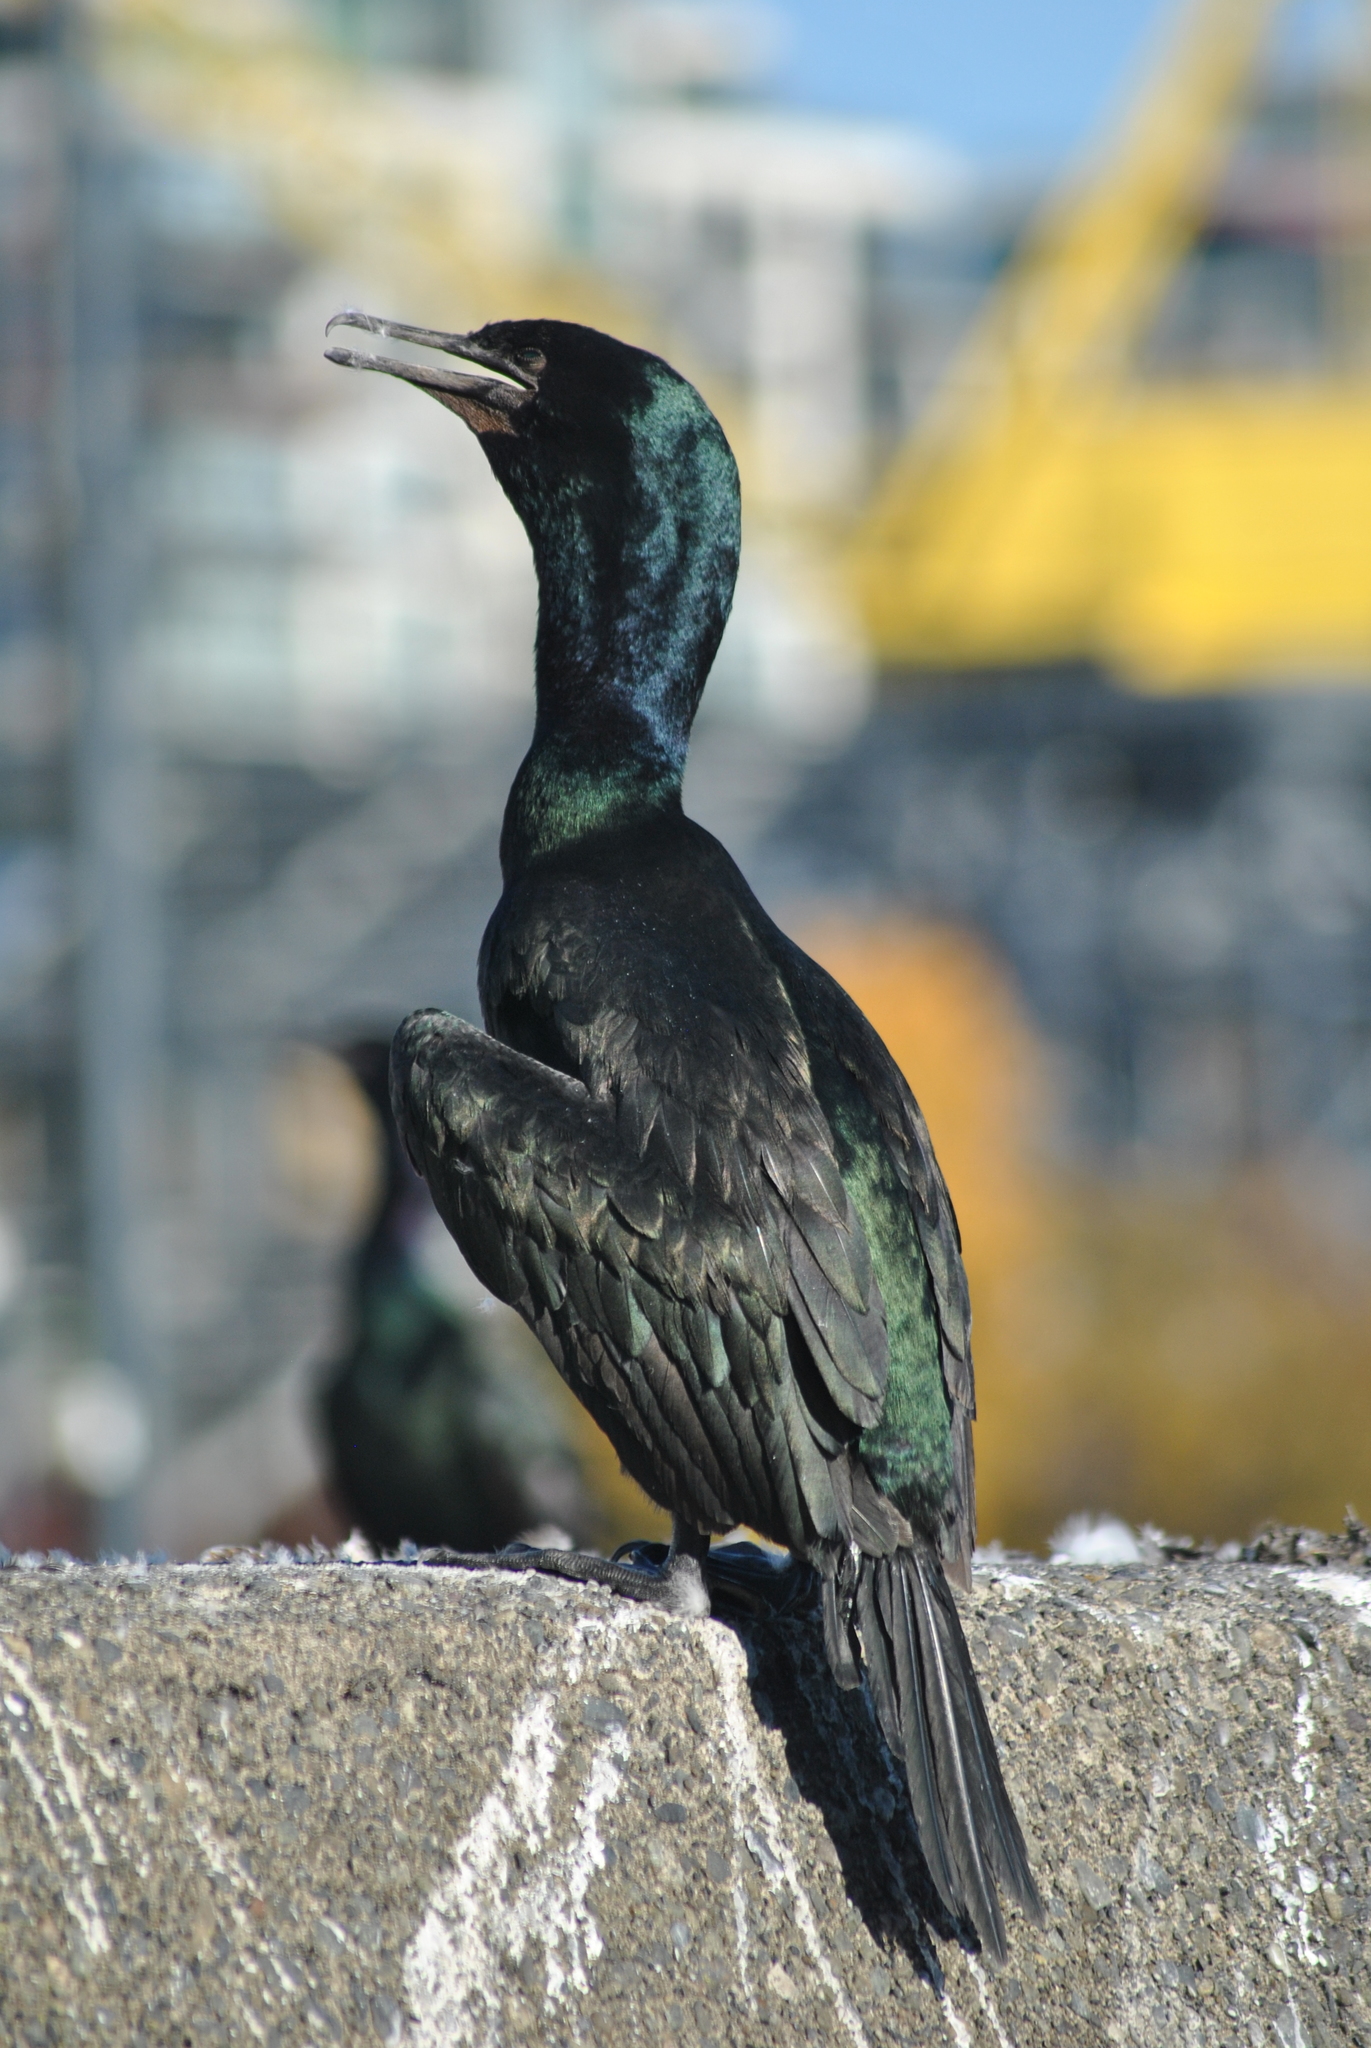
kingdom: Animalia
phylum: Chordata
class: Aves
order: Suliformes
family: Phalacrocoracidae
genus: Phalacrocorax
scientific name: Phalacrocorax pelagicus
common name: Pelagic cormorant
